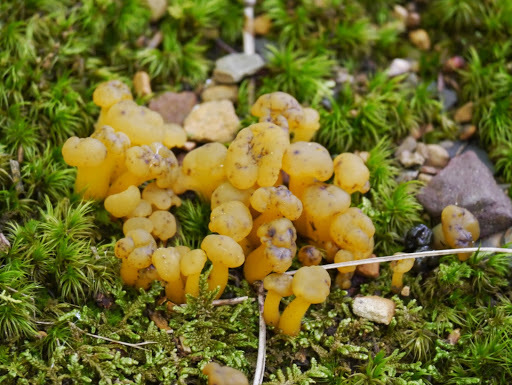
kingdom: Fungi
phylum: Ascomycota
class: Leotiomycetes
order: Leotiales
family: Leotiaceae
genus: Leotia
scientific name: Leotia lubrica
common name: Jellybaby
